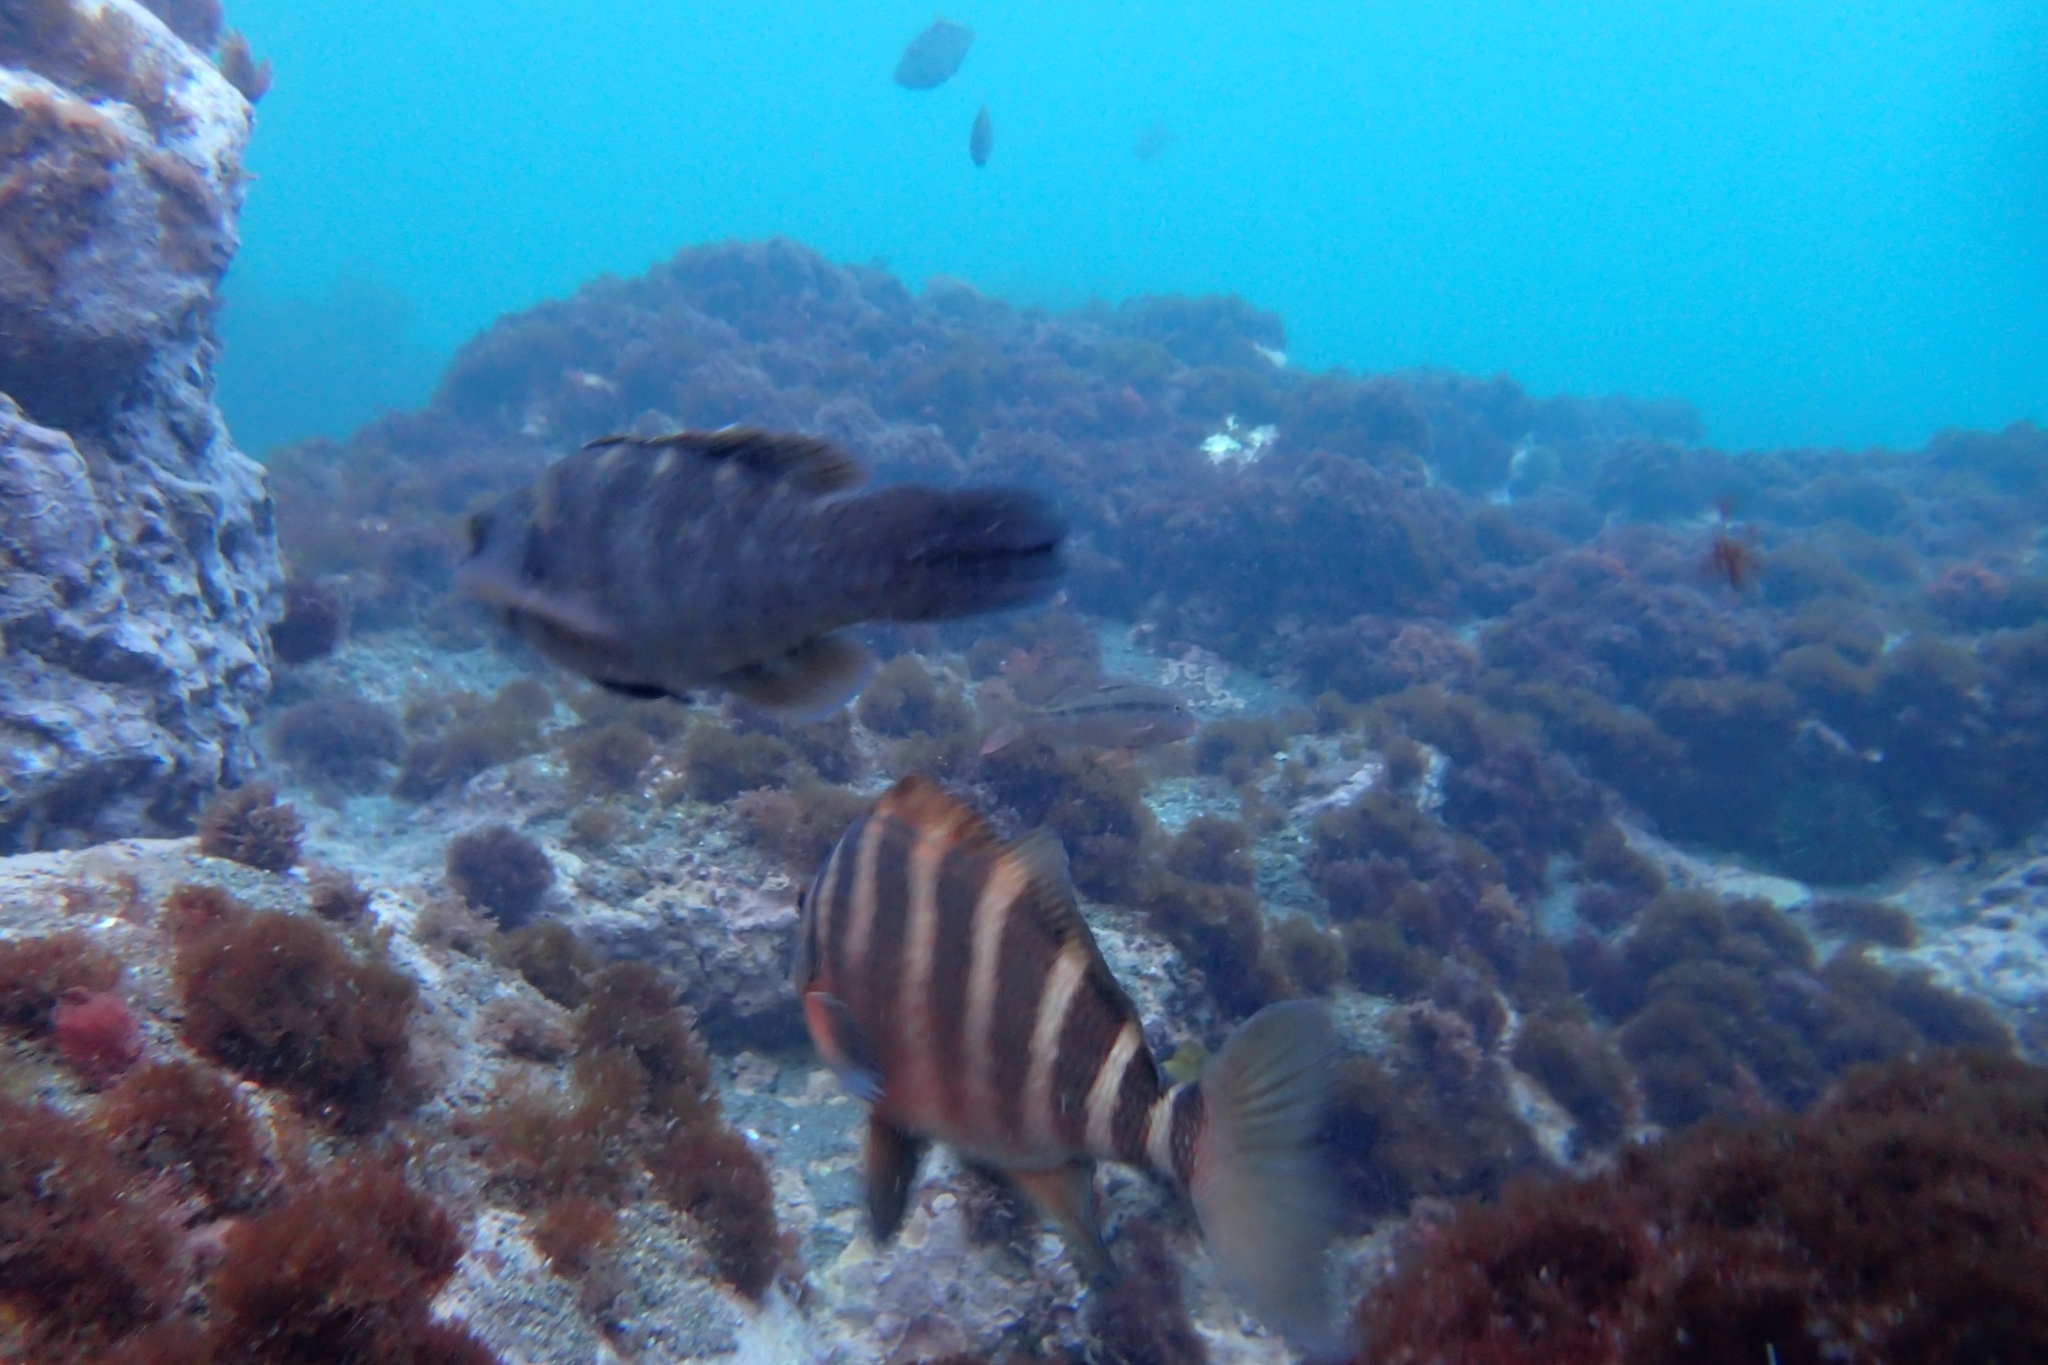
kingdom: Animalia
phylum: Chordata
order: Perciformes
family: Cheilodactylidae
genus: Cheilodactylus
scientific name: Cheilodactylus spectabilis
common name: Red moki
